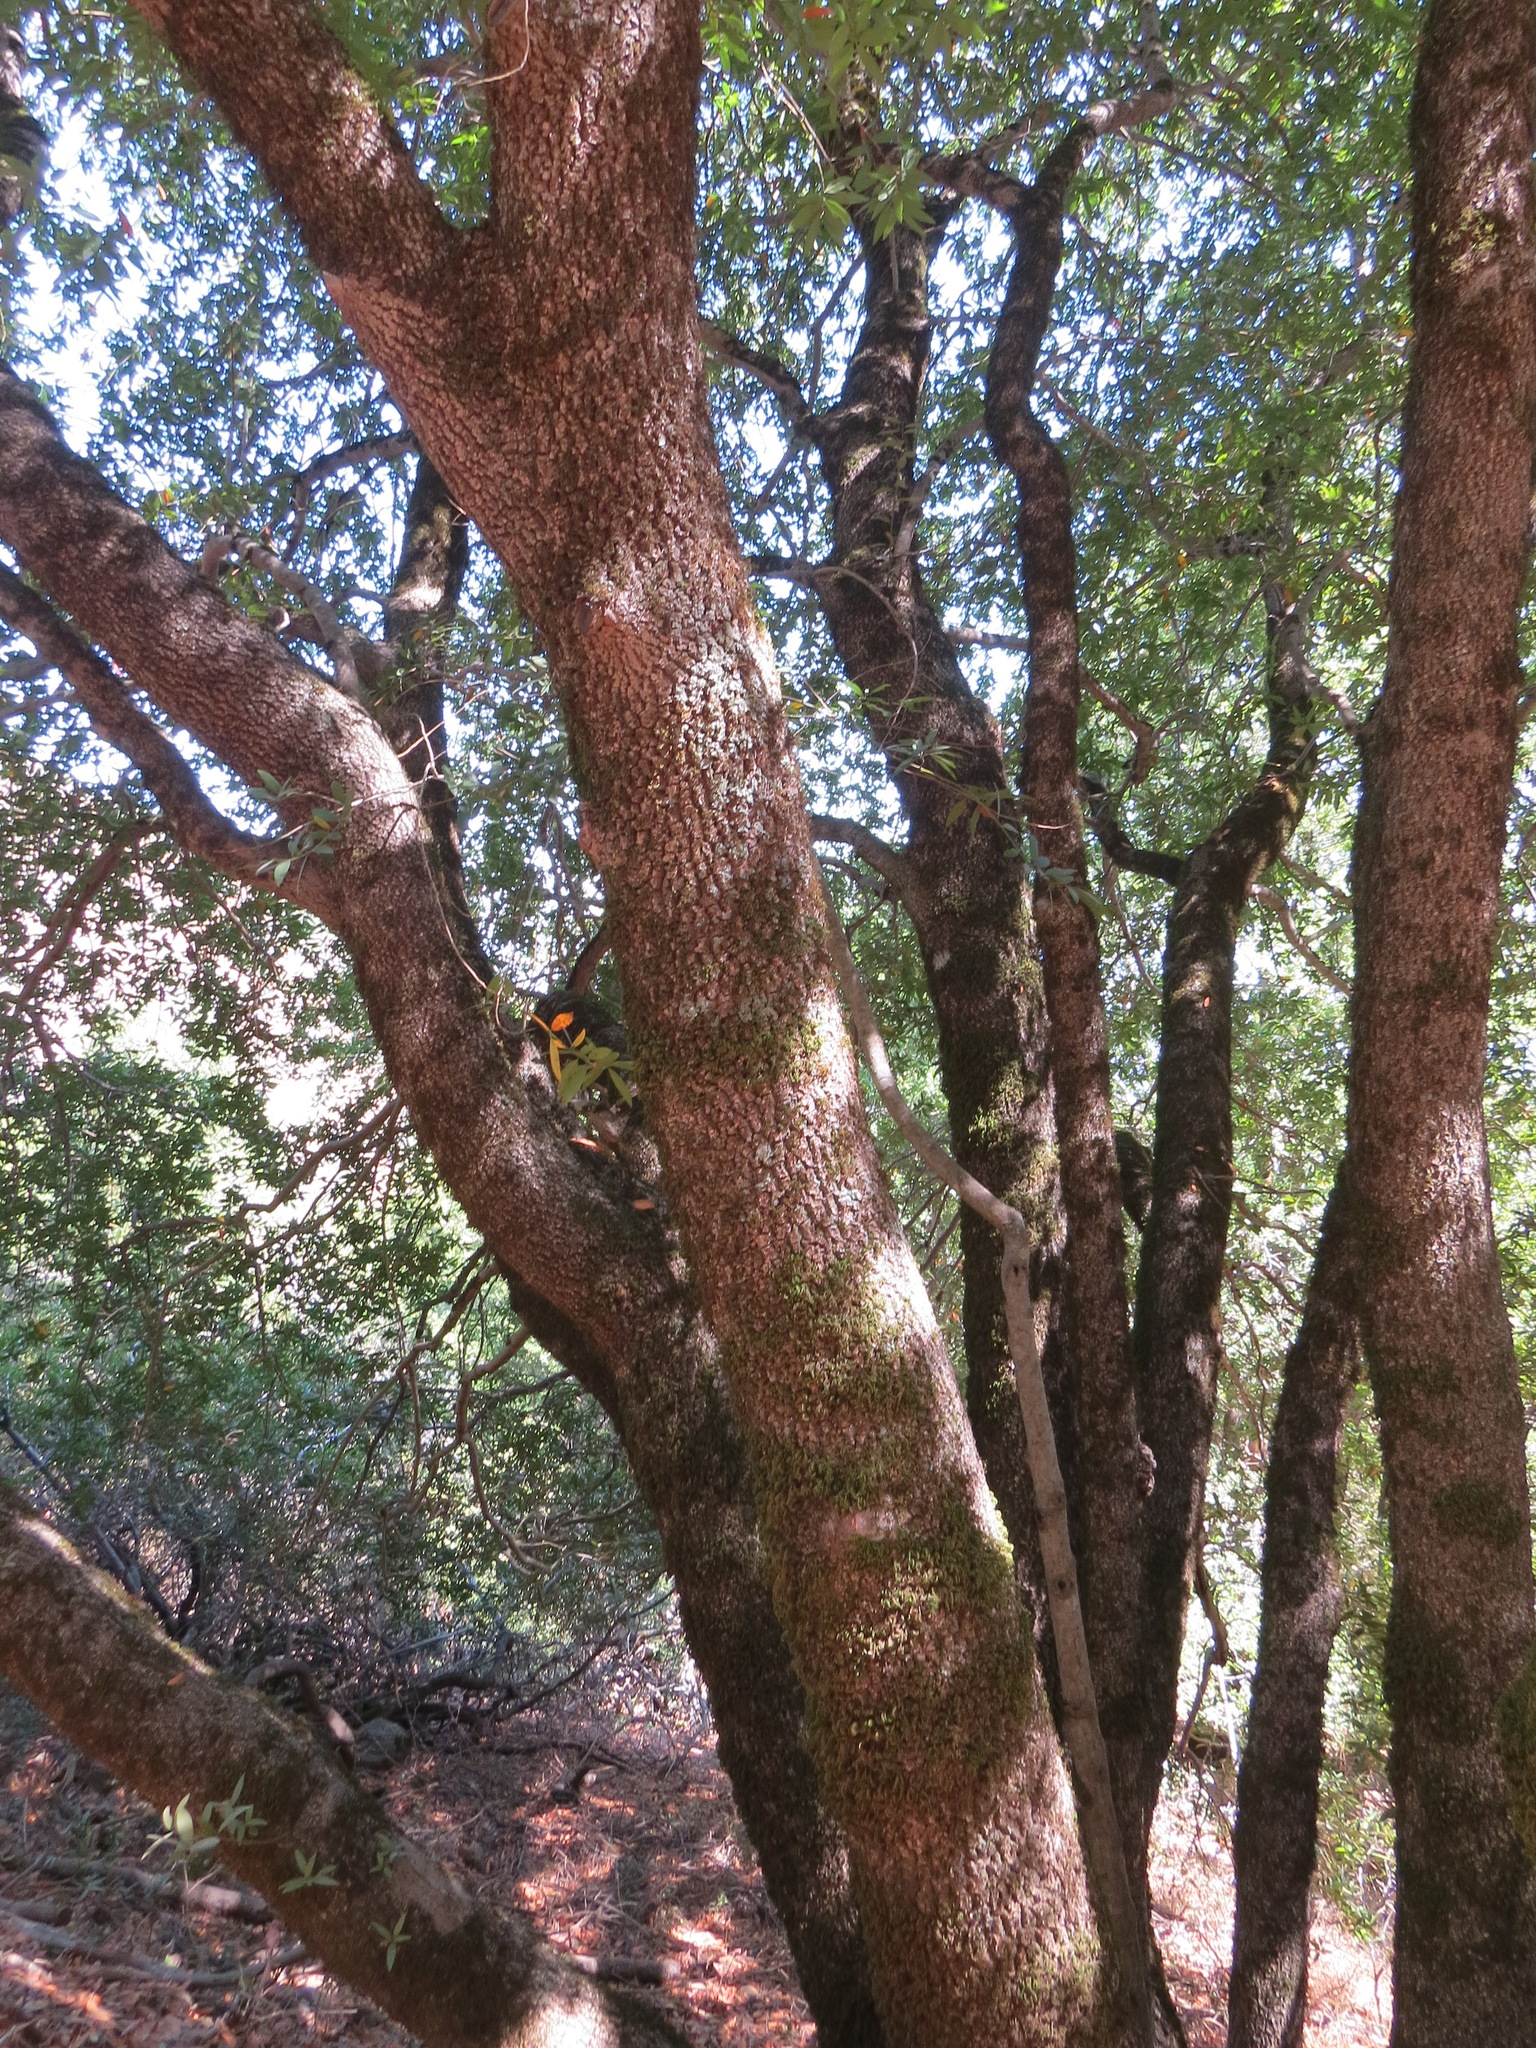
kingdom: Plantae
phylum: Tracheophyta
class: Magnoliopsida
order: Laurales
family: Lauraceae
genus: Umbellularia
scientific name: Umbellularia californica
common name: California bay
